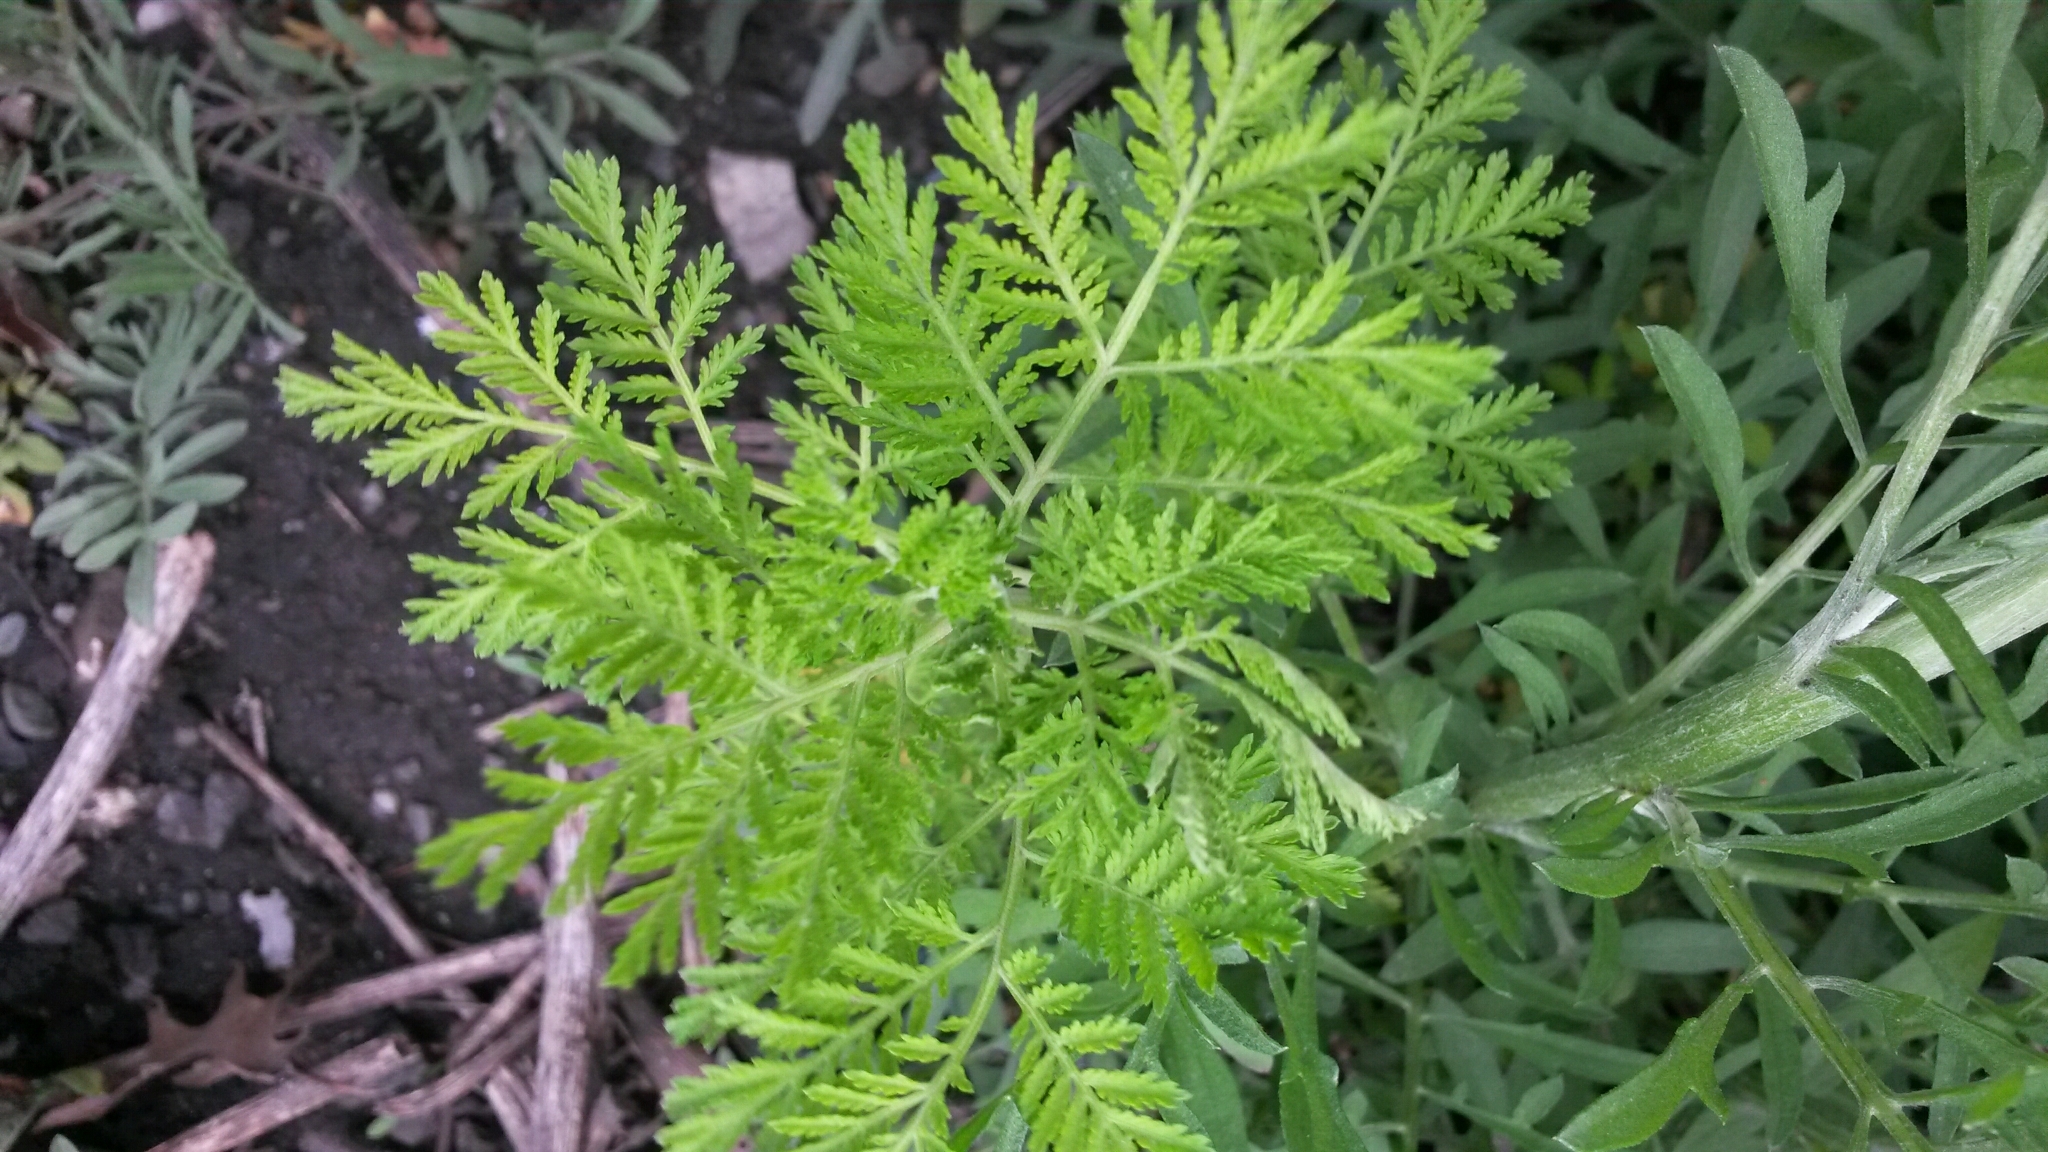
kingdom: Plantae
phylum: Tracheophyta
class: Magnoliopsida
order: Asterales
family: Asteraceae
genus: Artemisia
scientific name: Artemisia annua
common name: Sweet sagewort
